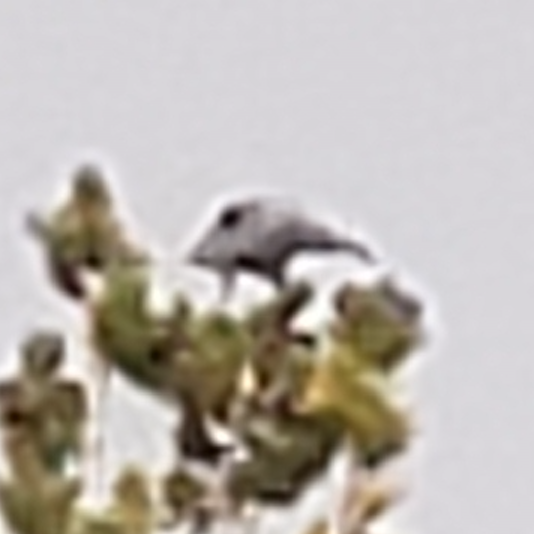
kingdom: Animalia
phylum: Chordata
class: Aves
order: Passeriformes
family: Corvidae
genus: Nucifraga
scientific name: Nucifraga columbiana
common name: Clark's nutcracker
